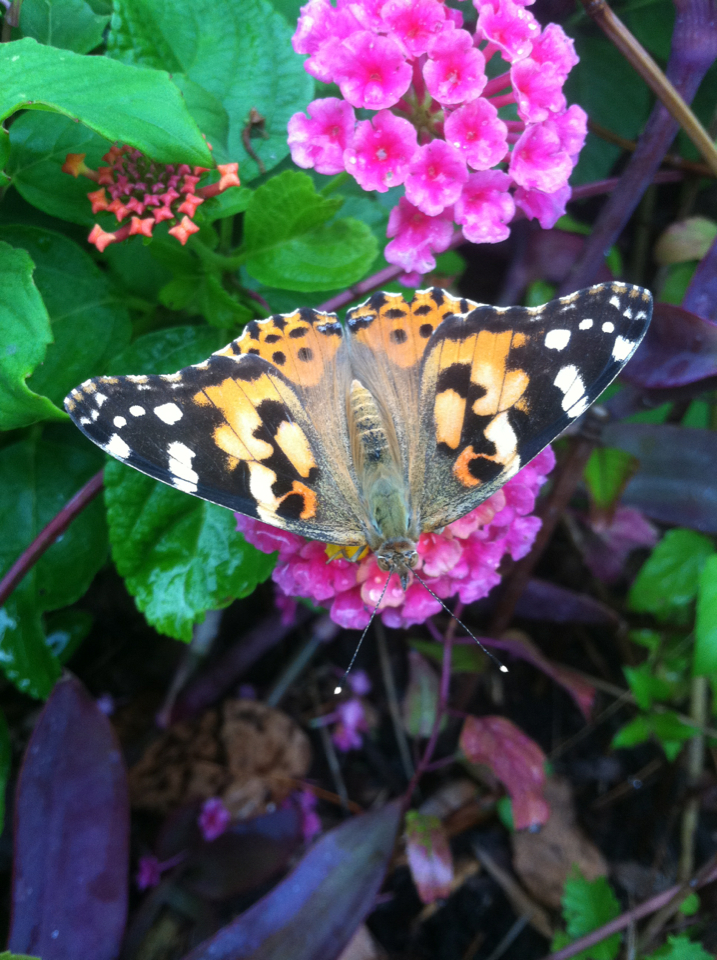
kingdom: Animalia
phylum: Arthropoda
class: Insecta
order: Lepidoptera
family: Nymphalidae
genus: Vanessa
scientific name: Vanessa cardui
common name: Painted lady
